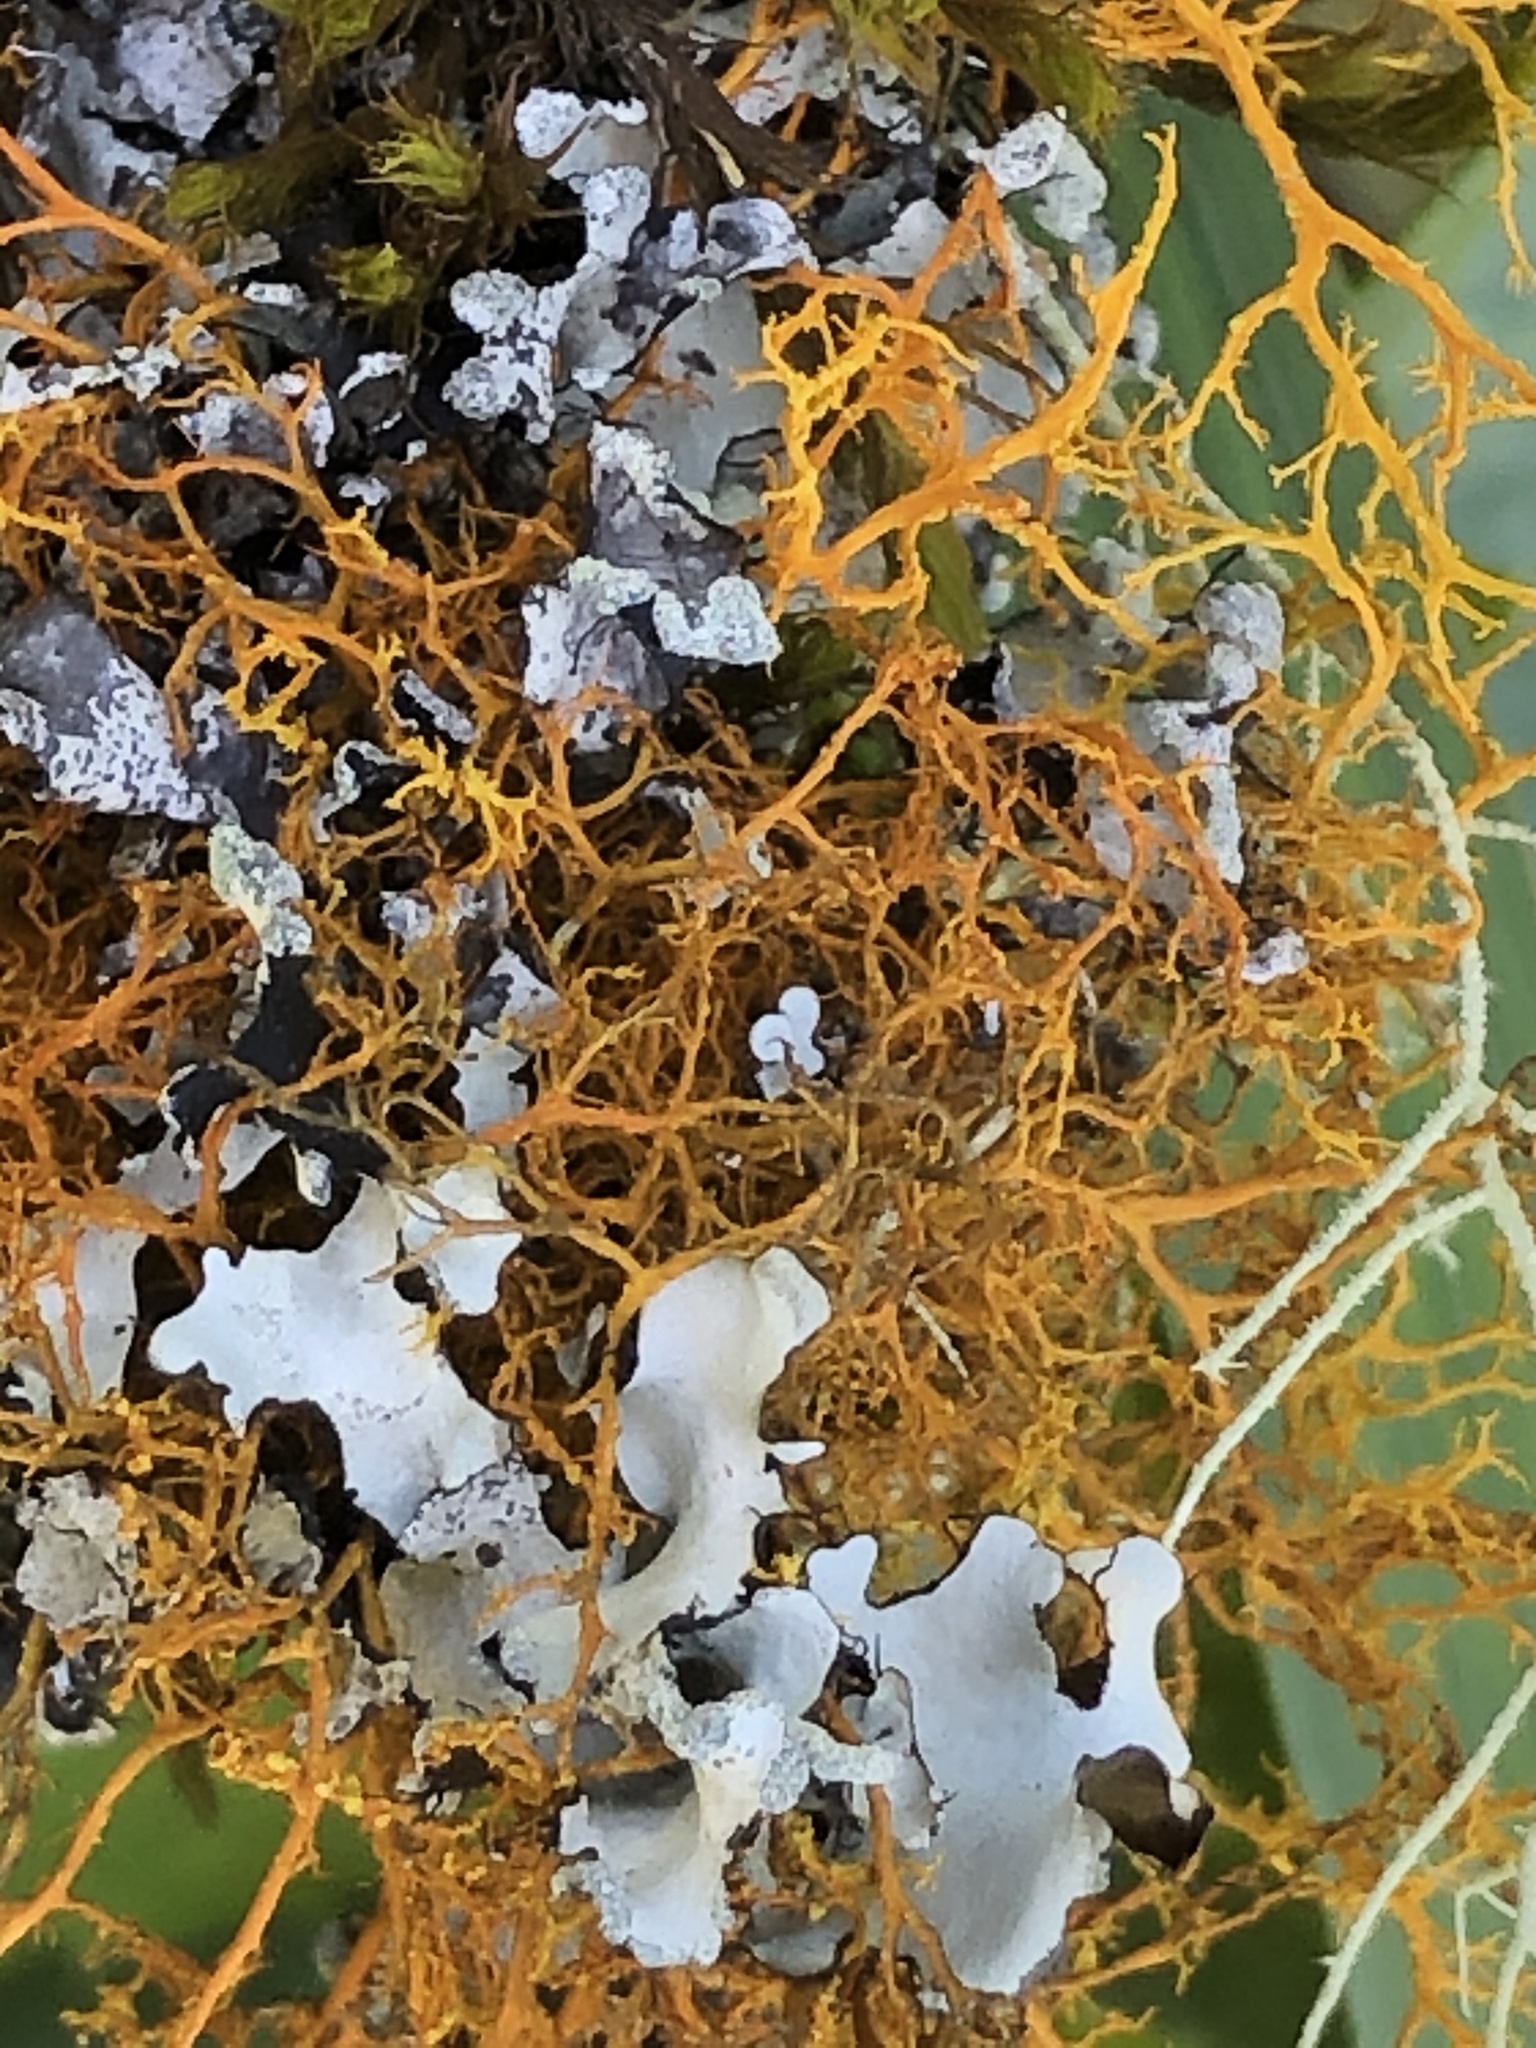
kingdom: Fungi
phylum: Ascomycota
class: Lecanoromycetes
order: Teloschistales
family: Teloschistaceae
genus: Teloschistes
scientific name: Teloschistes flavicans
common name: Golden hair-lichen
